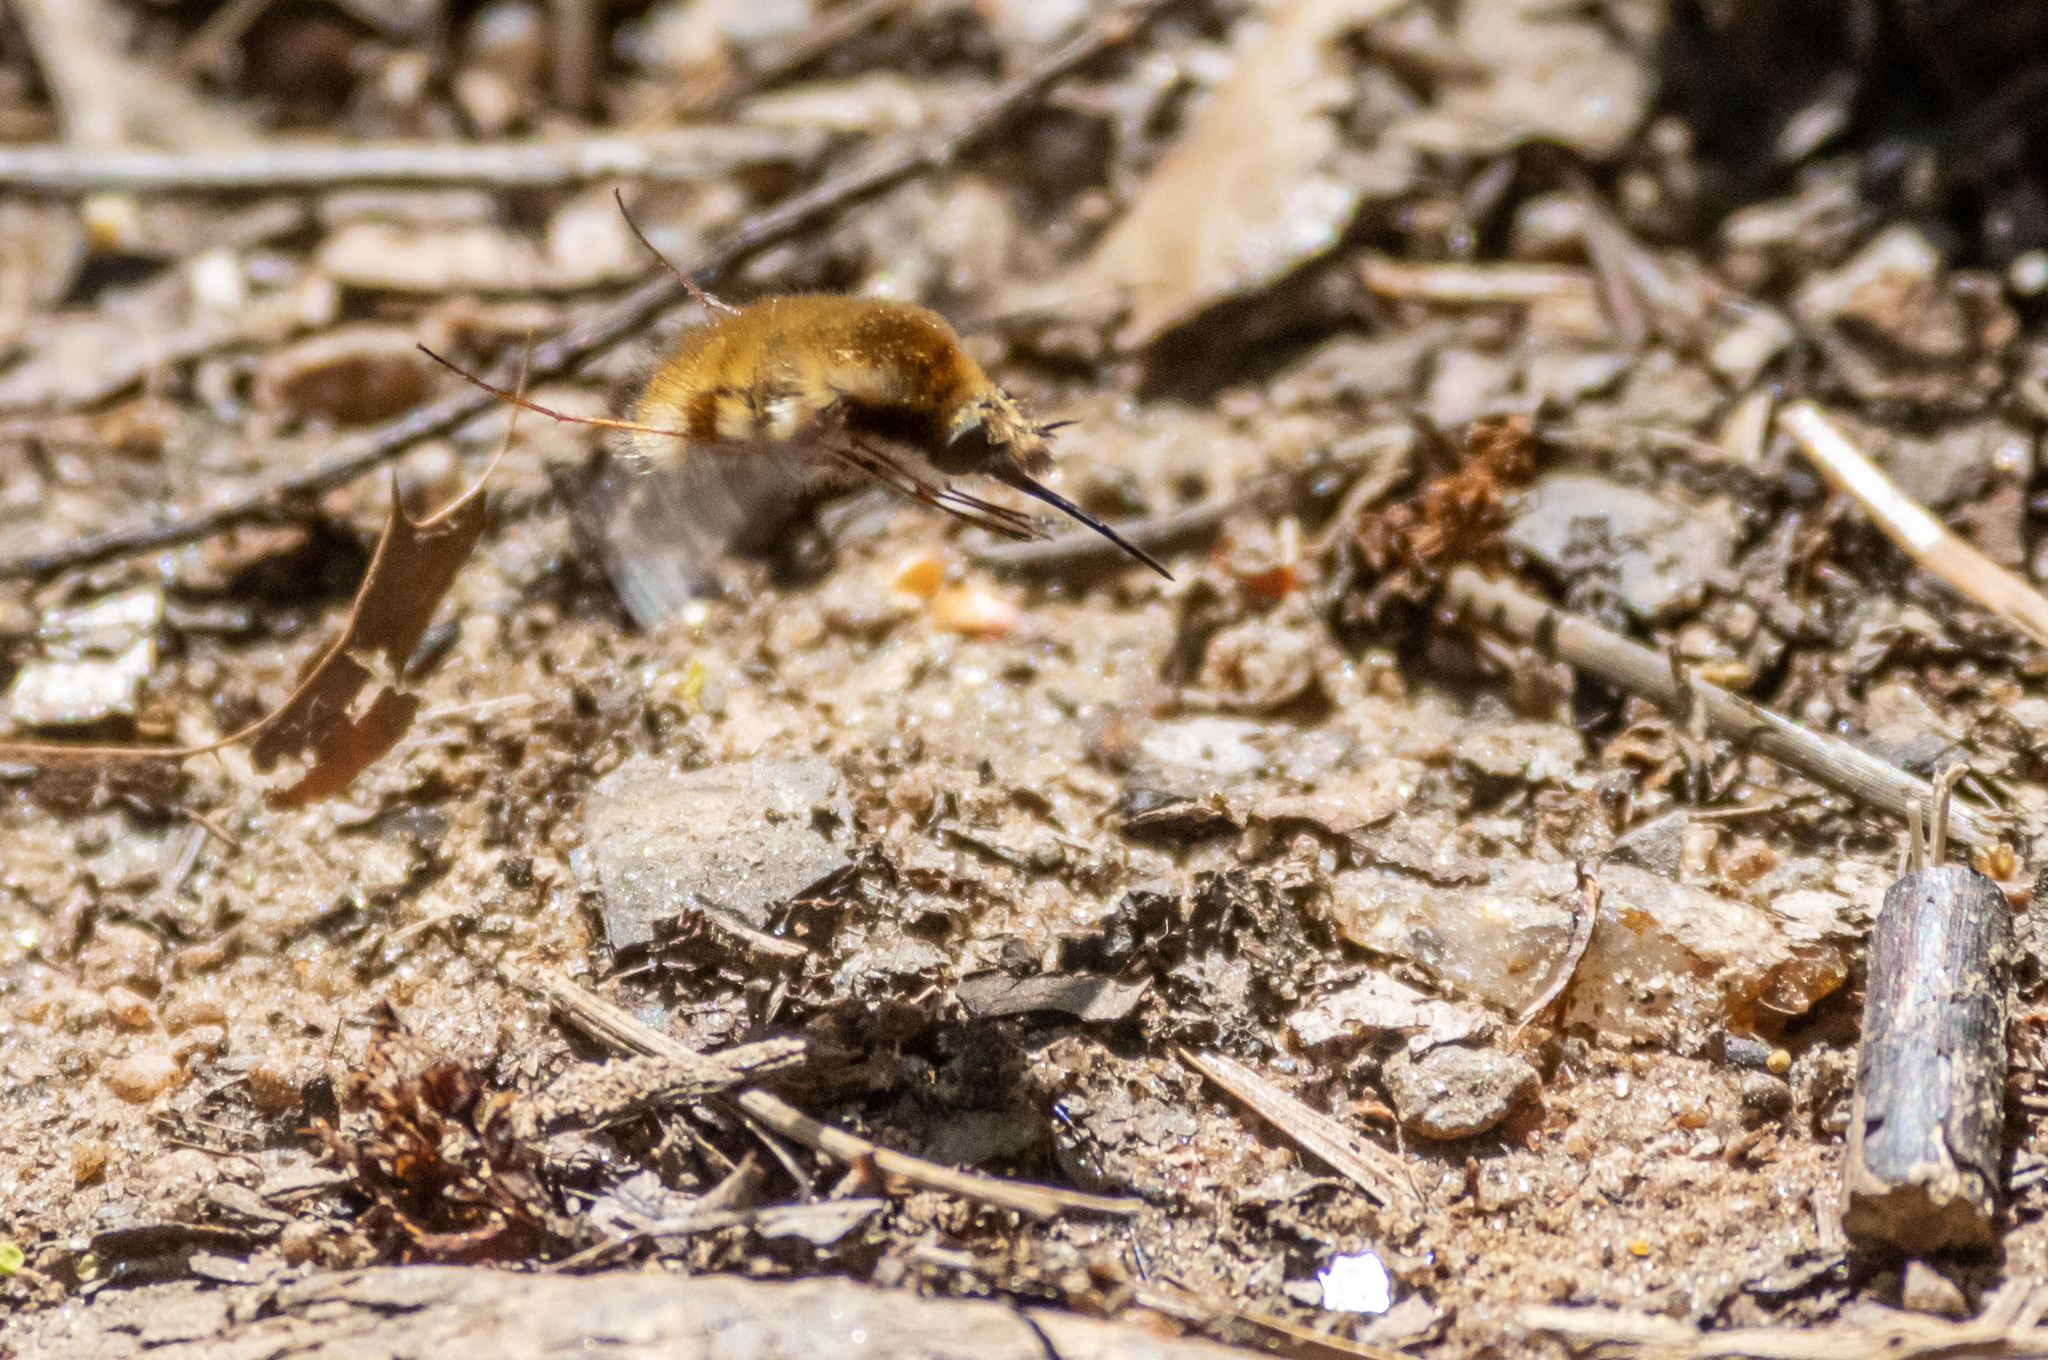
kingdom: Animalia
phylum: Arthropoda
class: Insecta
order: Diptera
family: Bombyliidae
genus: Bombylius
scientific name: Bombylius major
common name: Bee fly
